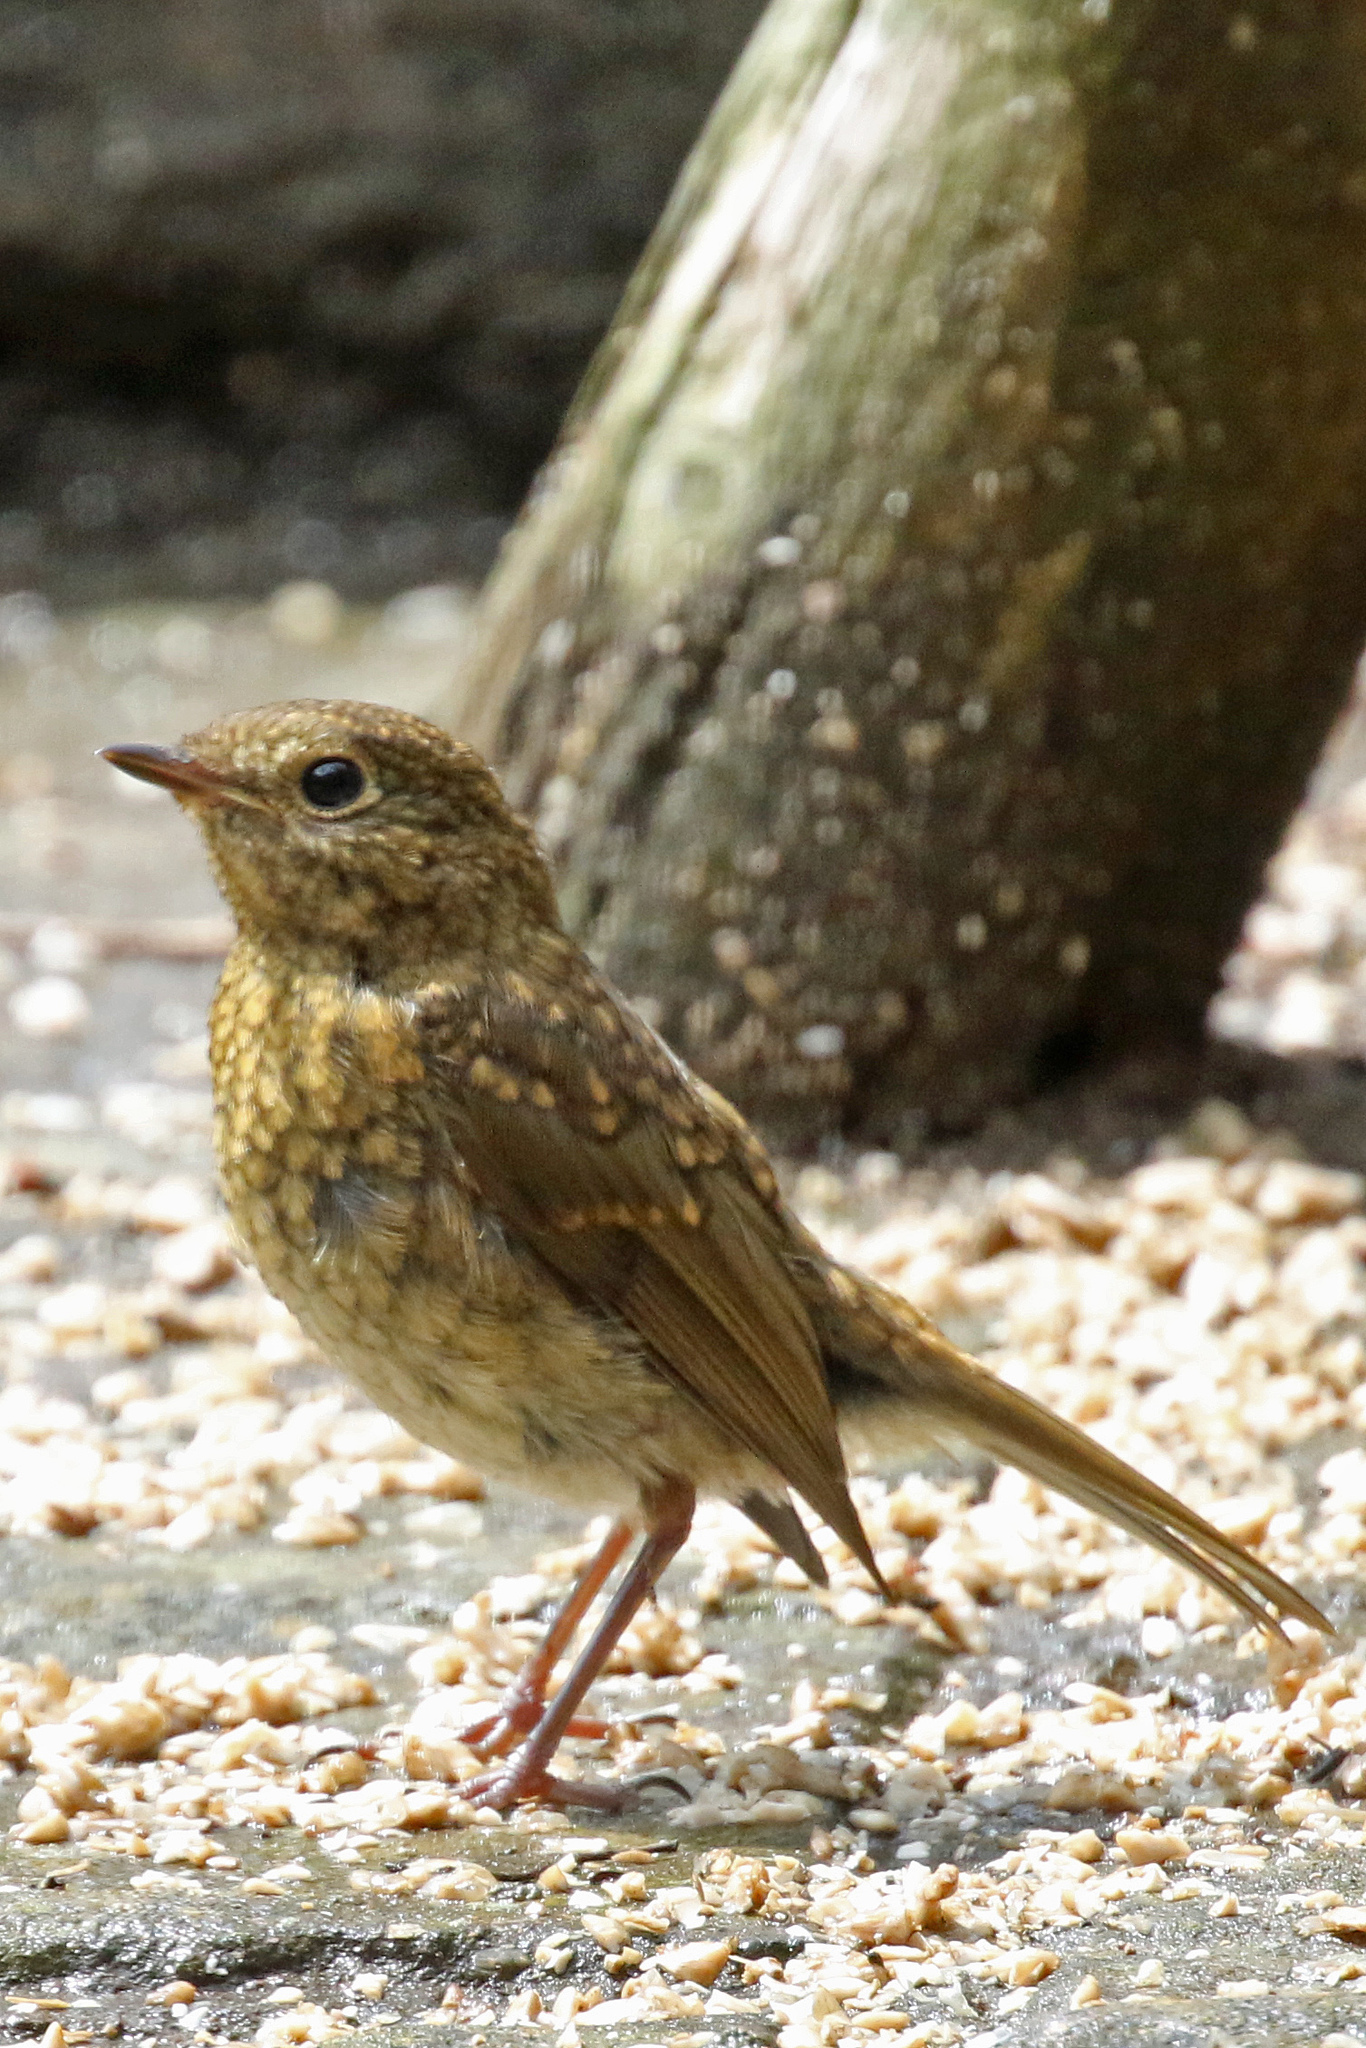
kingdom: Animalia
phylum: Chordata
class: Aves
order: Passeriformes
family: Muscicapidae
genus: Erithacus
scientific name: Erithacus rubecula
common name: European robin
